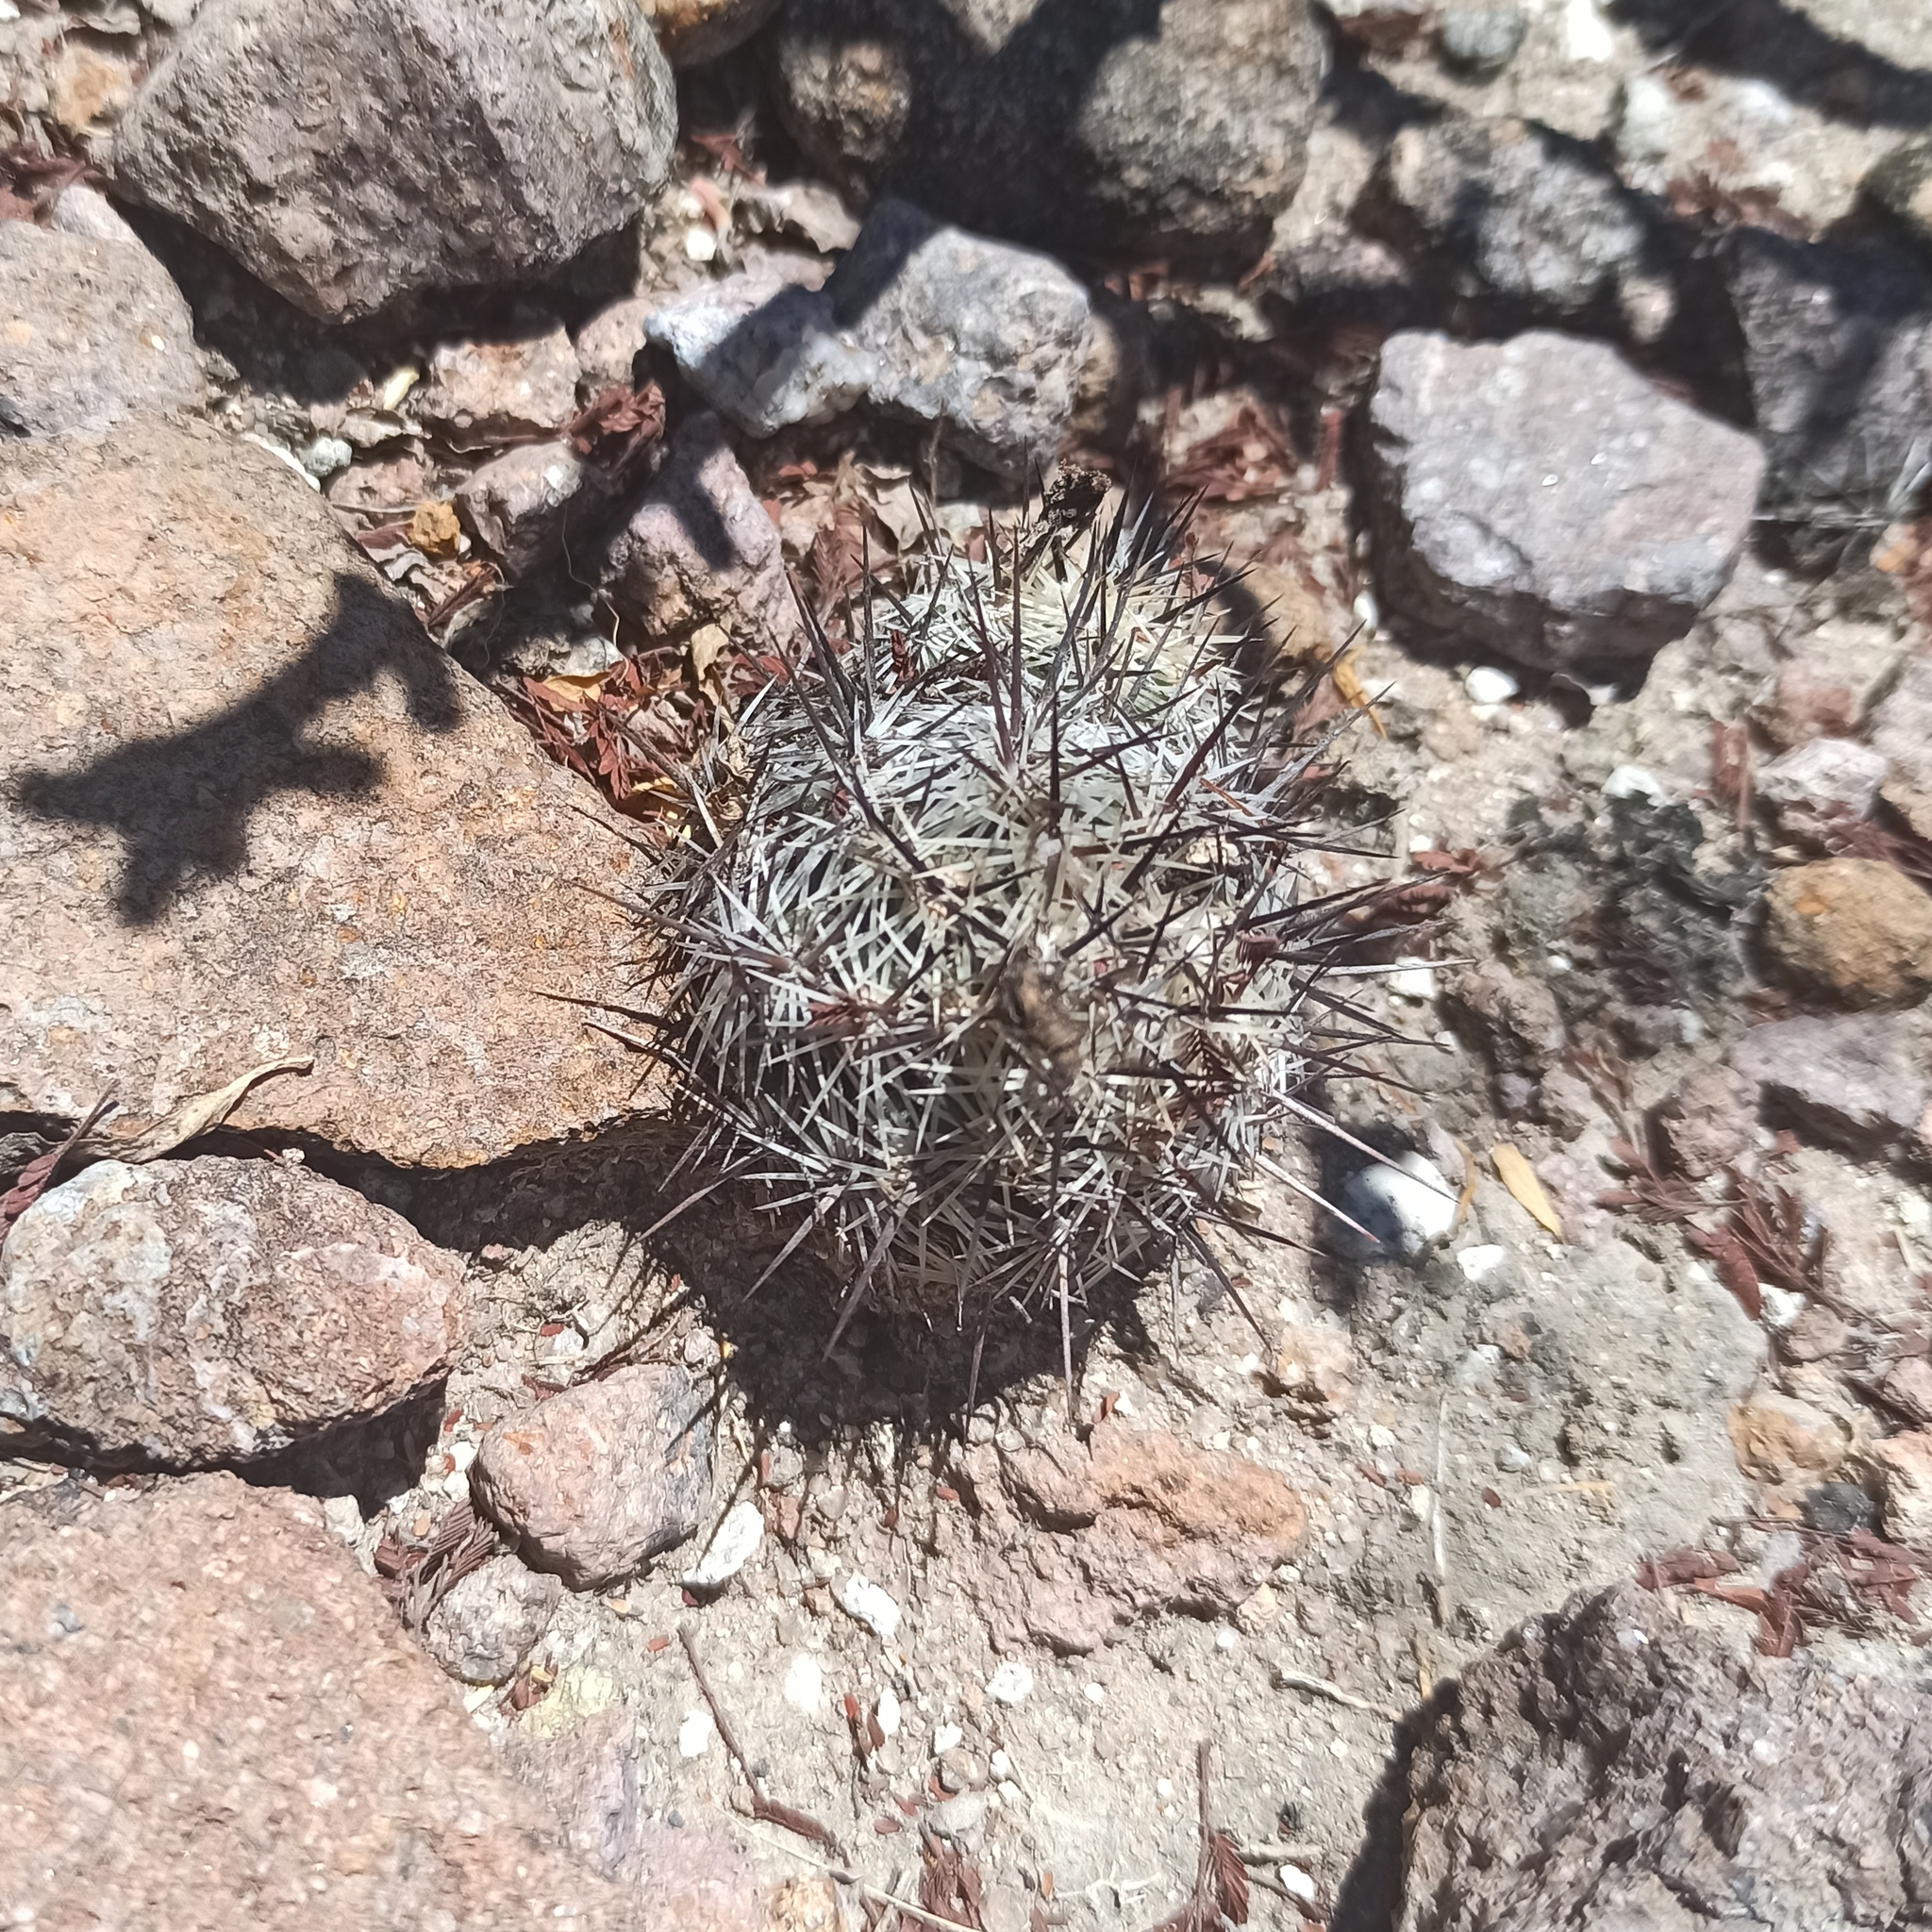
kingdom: Plantae
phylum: Tracheophyta
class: Magnoliopsida
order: Caryophyllales
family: Cactaceae
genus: Cochemiea
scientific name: Cochemiea conoidea
